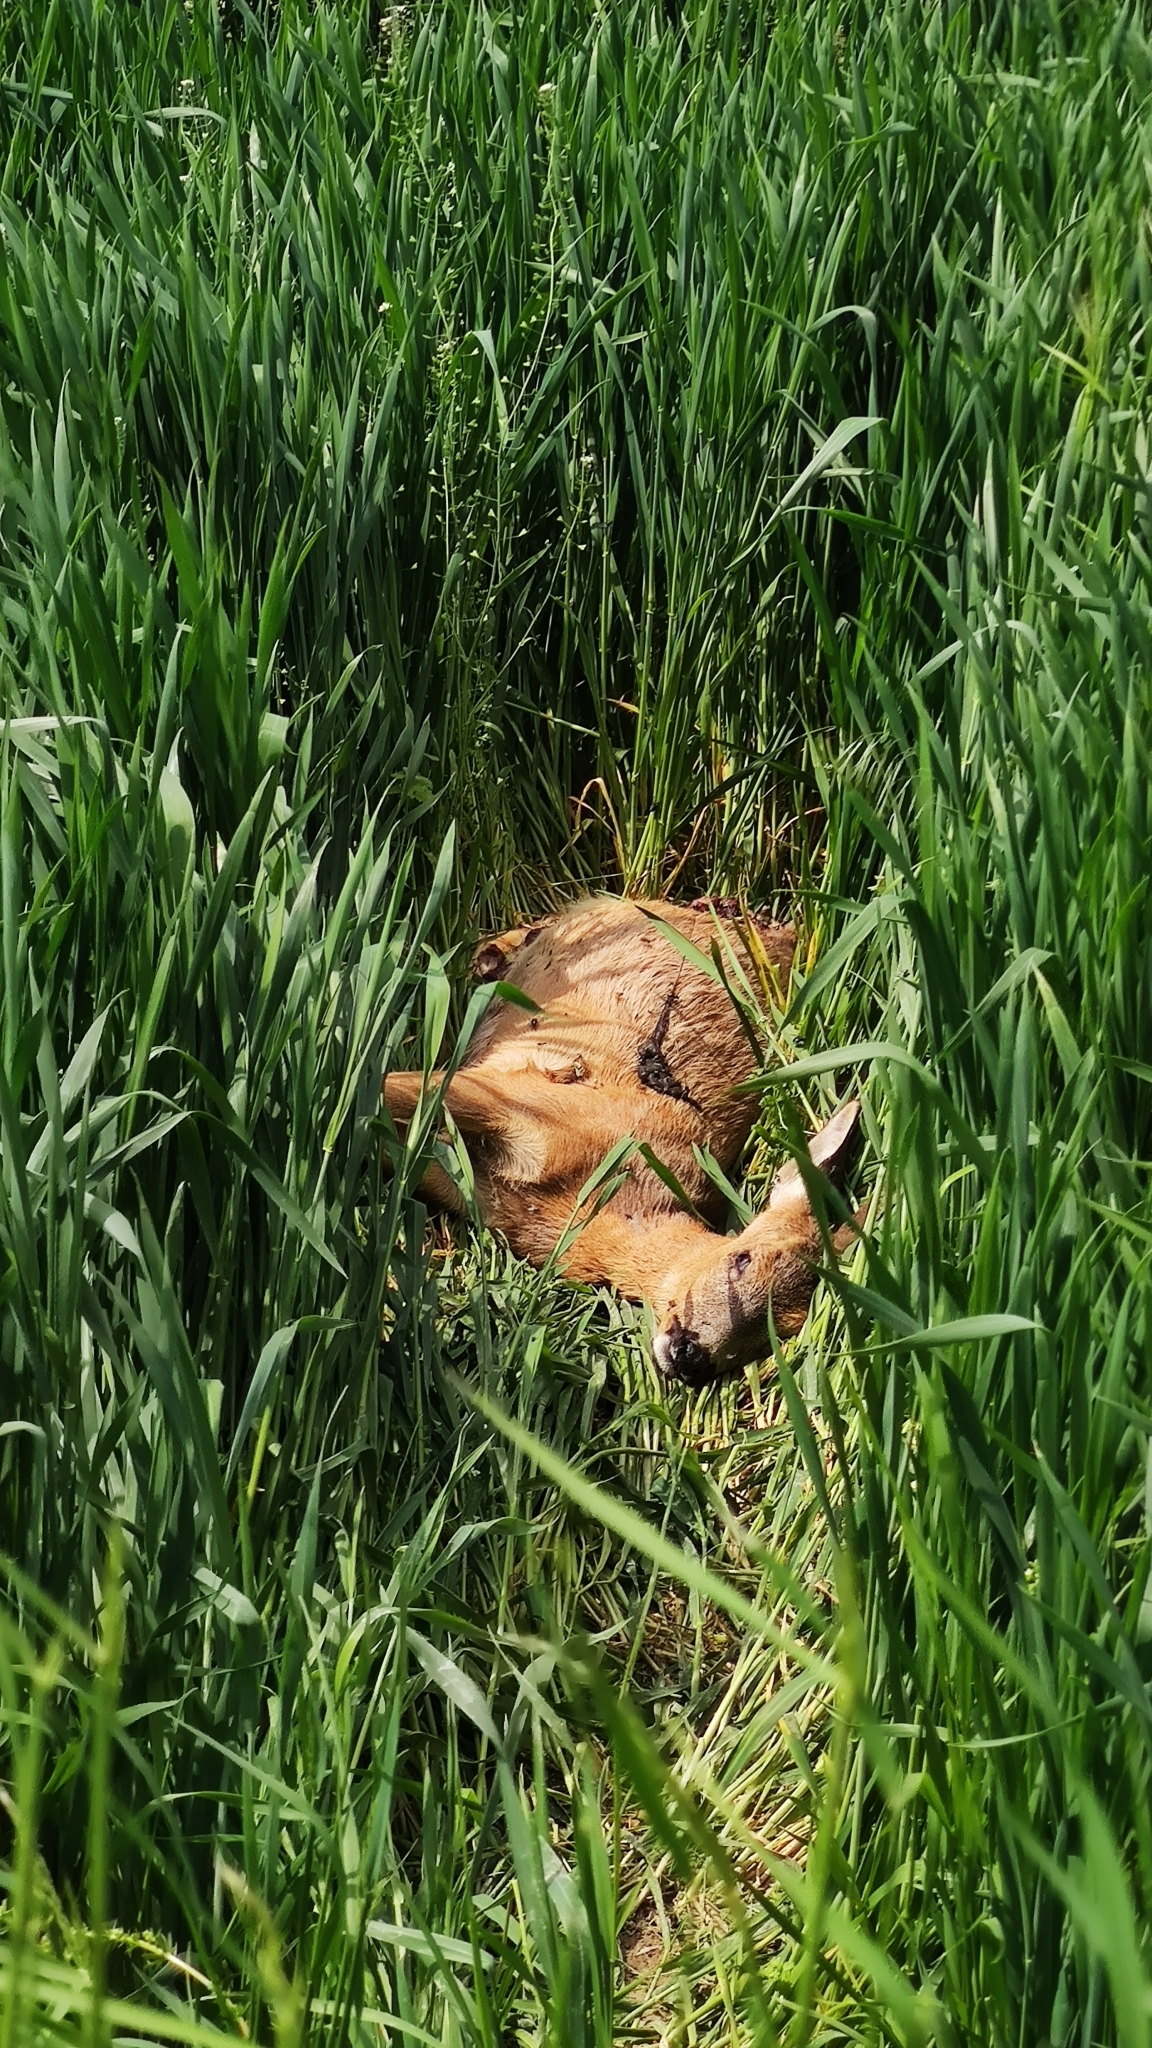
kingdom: Animalia
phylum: Chordata
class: Mammalia
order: Artiodactyla
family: Cervidae
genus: Capreolus
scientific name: Capreolus capreolus
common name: Western roe deer
